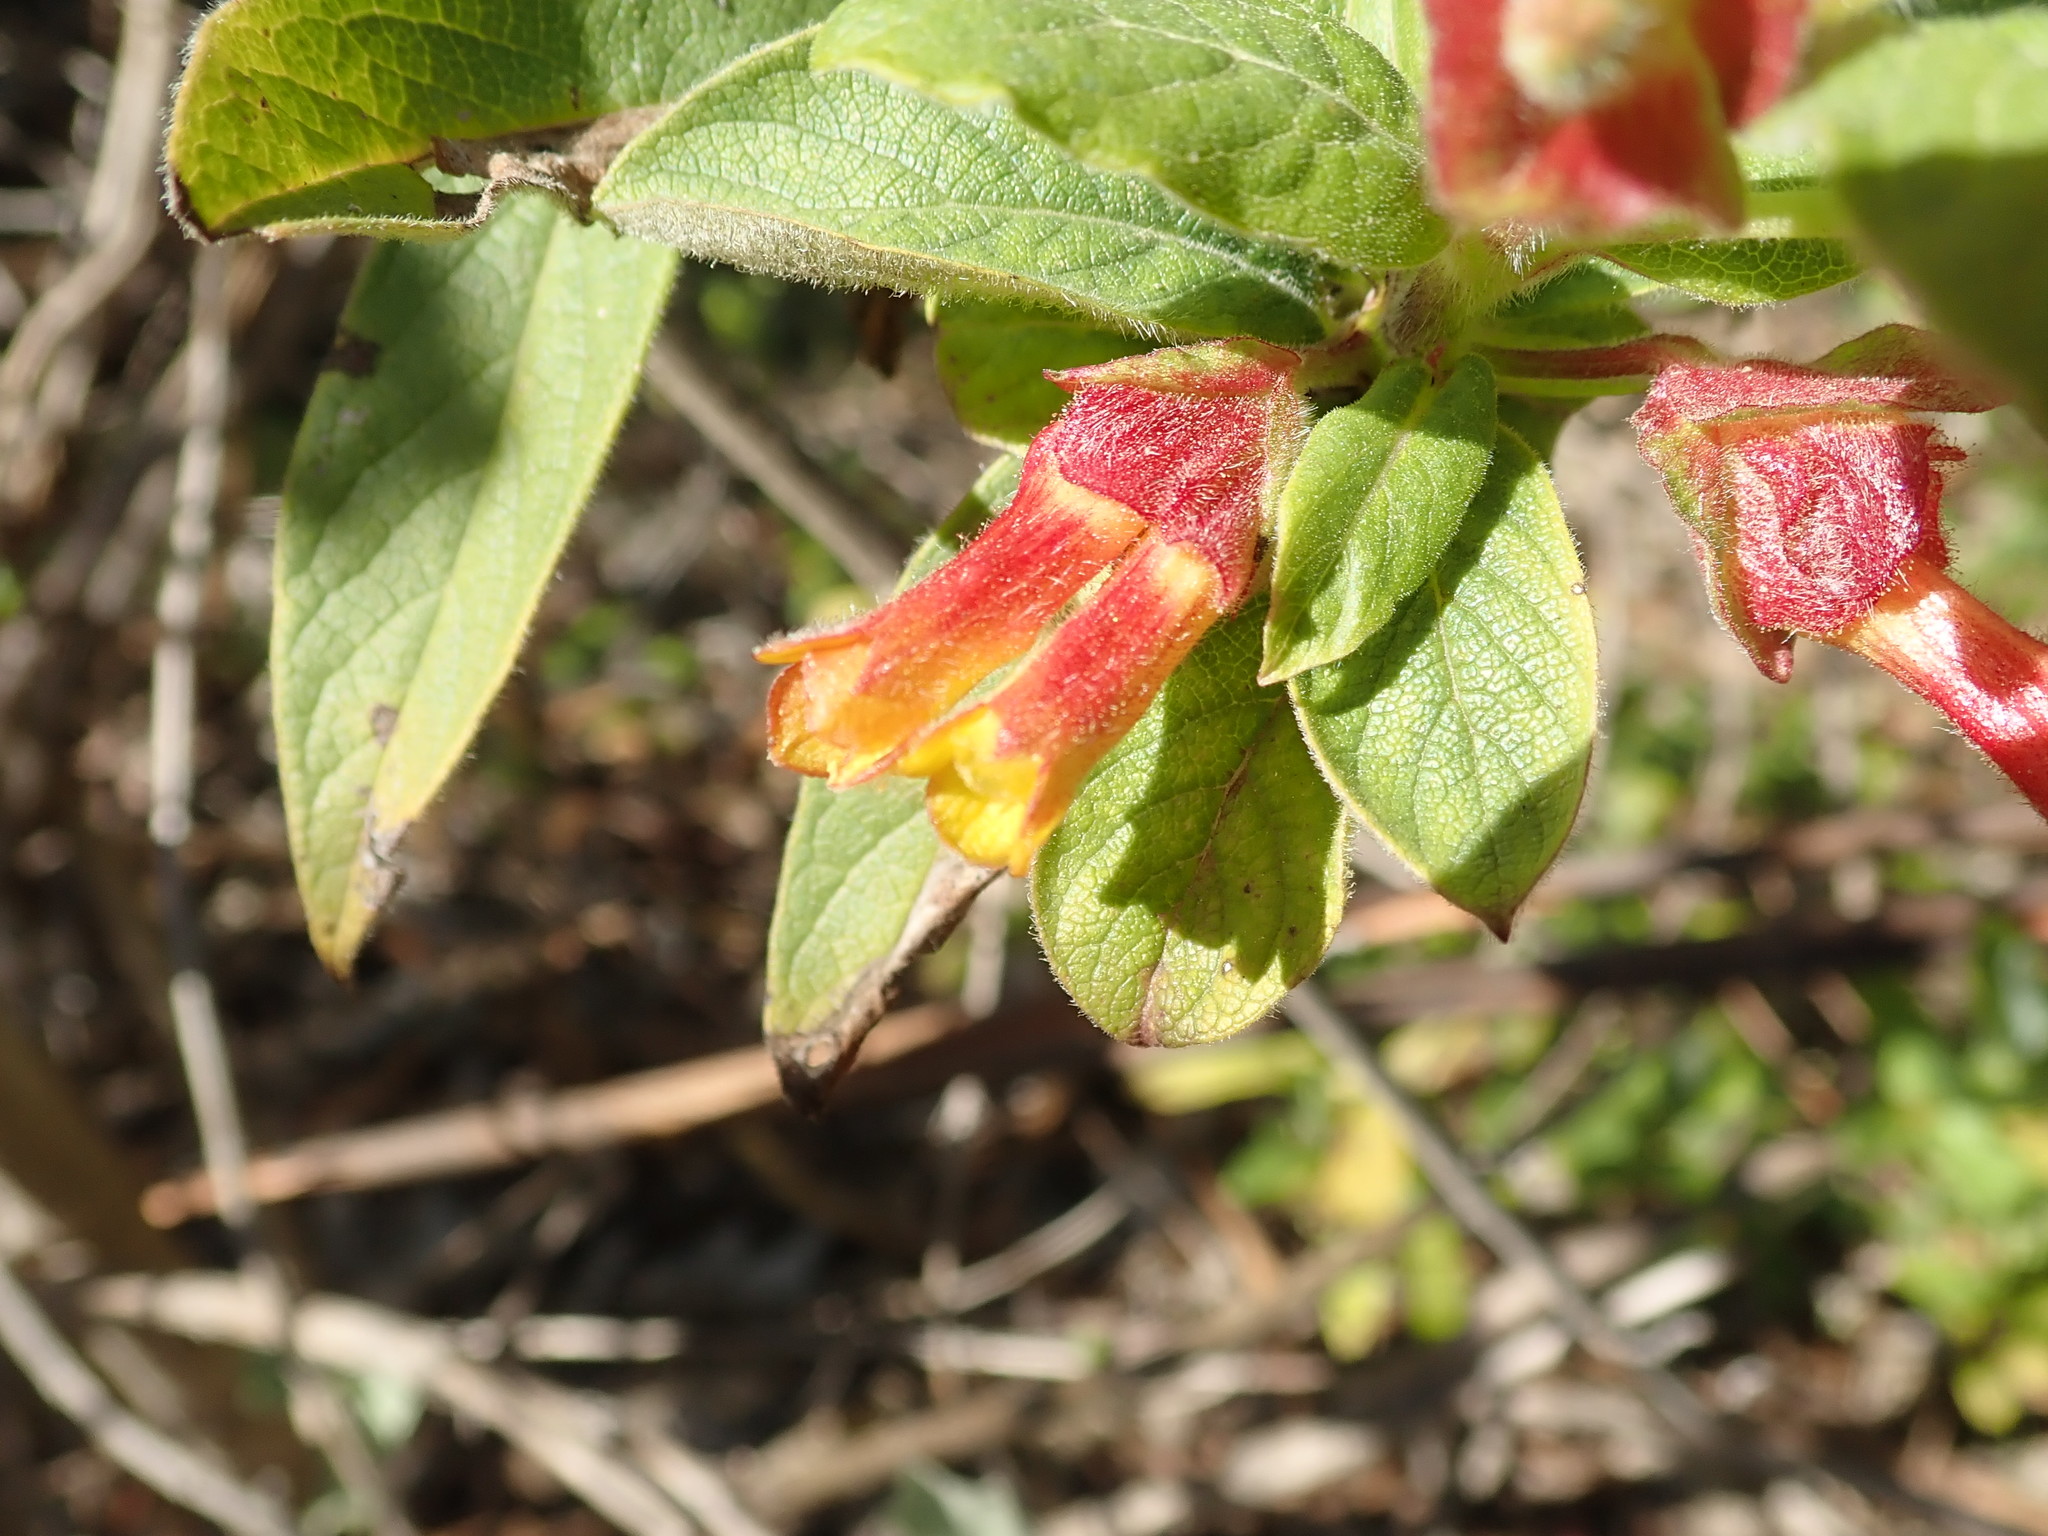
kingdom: Plantae
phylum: Tracheophyta
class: Magnoliopsida
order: Dipsacales
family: Caprifoliaceae
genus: Lonicera
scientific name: Lonicera involucrata
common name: Californian honeysuckle
